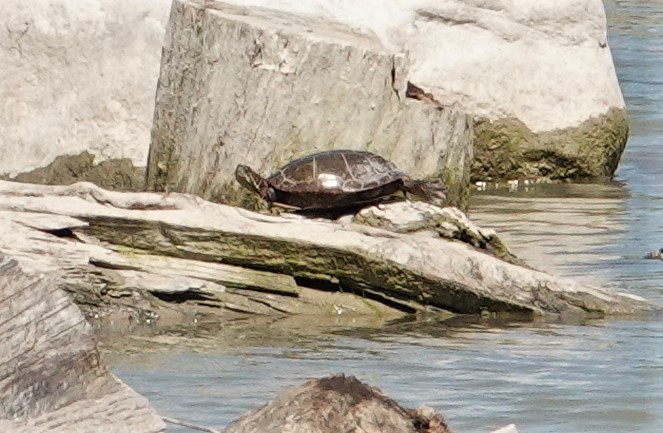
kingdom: Animalia
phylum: Chordata
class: Testudines
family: Emydidae
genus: Chrysemys
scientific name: Chrysemys picta
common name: Painted turtle
